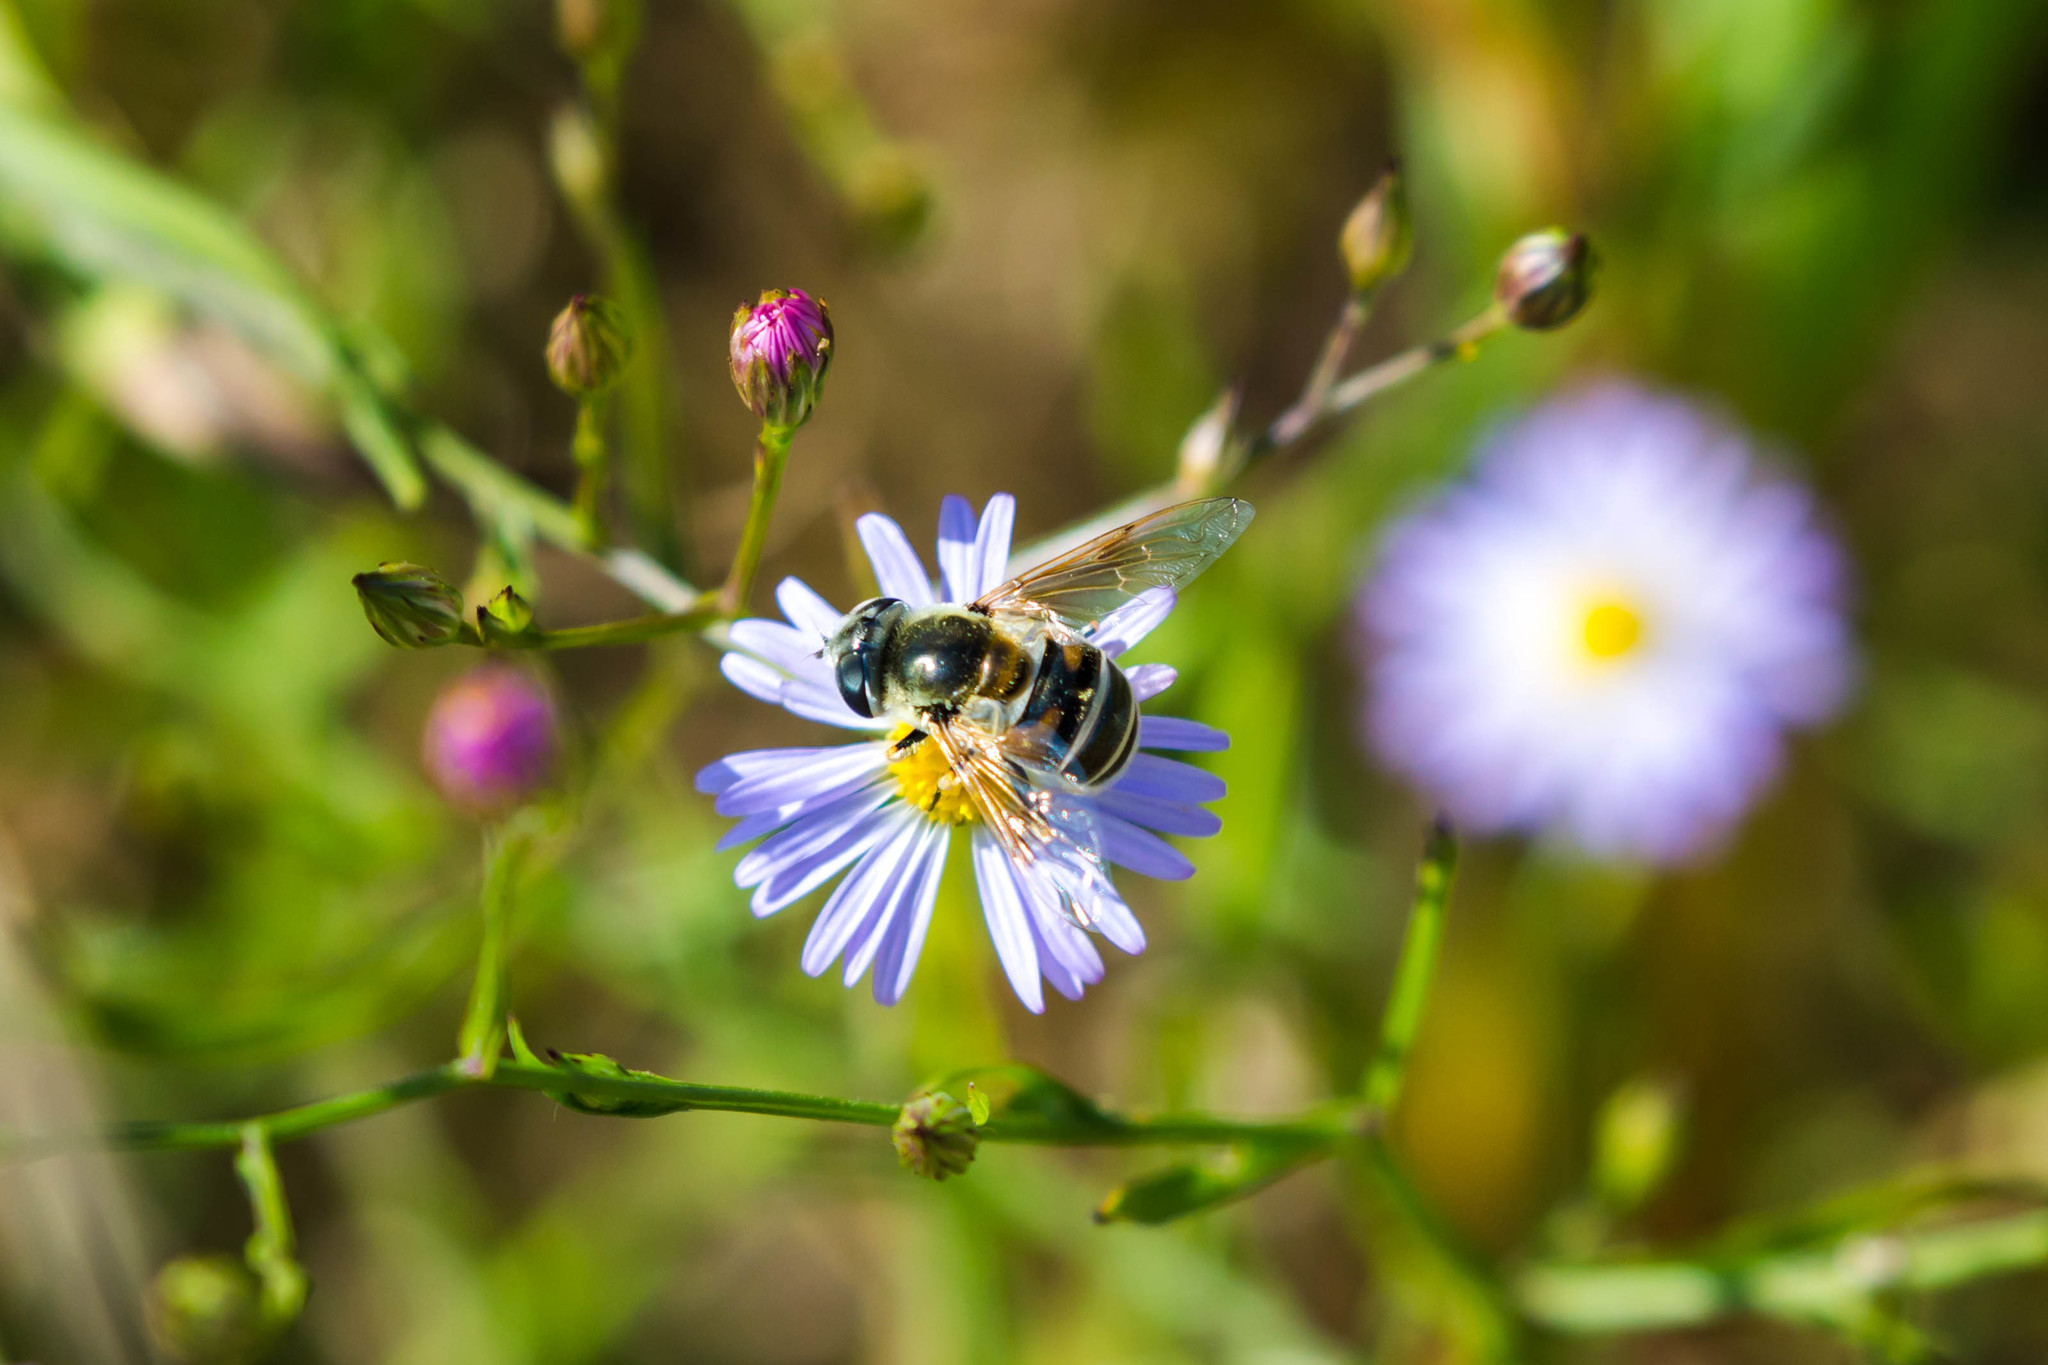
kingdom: Animalia
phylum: Arthropoda
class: Insecta
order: Diptera
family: Syrphidae
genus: Eristalis
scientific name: Eristalis stipator
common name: Yellow-shouldered drone fly
